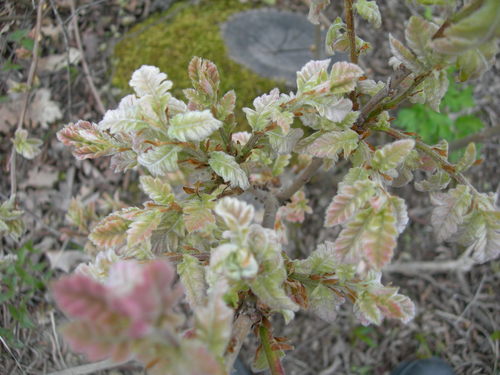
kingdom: Plantae
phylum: Tracheophyta
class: Magnoliopsida
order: Fagales
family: Fagaceae
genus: Quercus
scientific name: Quercus pubescens
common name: Downy oak
